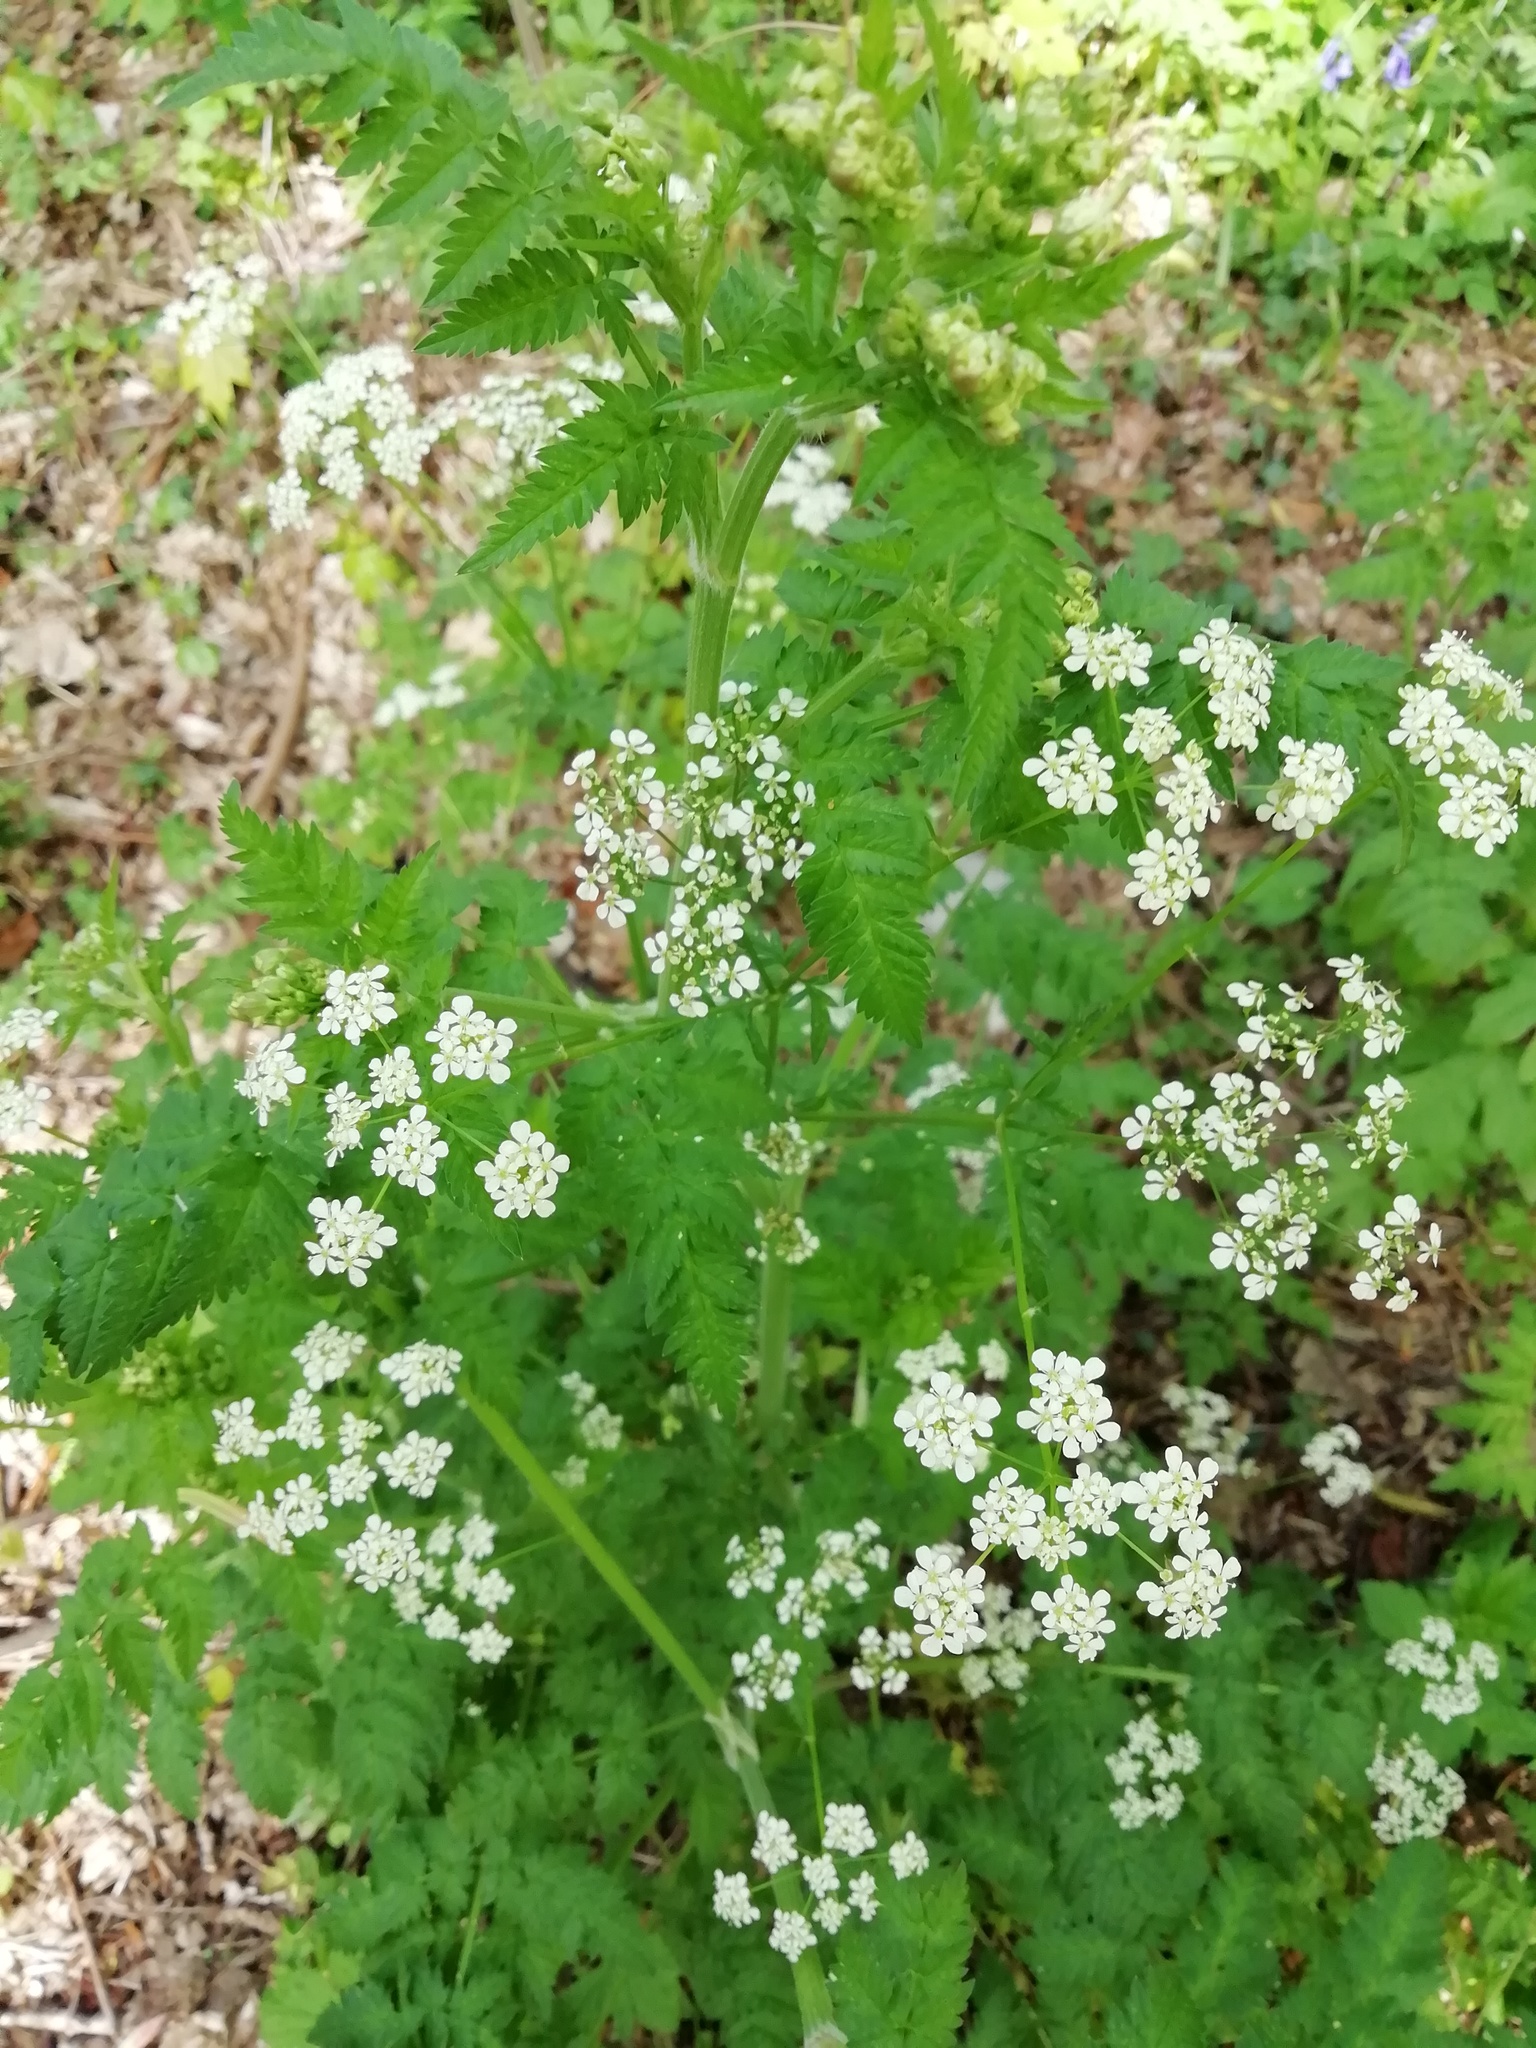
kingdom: Plantae
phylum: Tracheophyta
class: Magnoliopsida
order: Apiales
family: Apiaceae
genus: Anthriscus
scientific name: Anthriscus sylvestris
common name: Cow parsley
